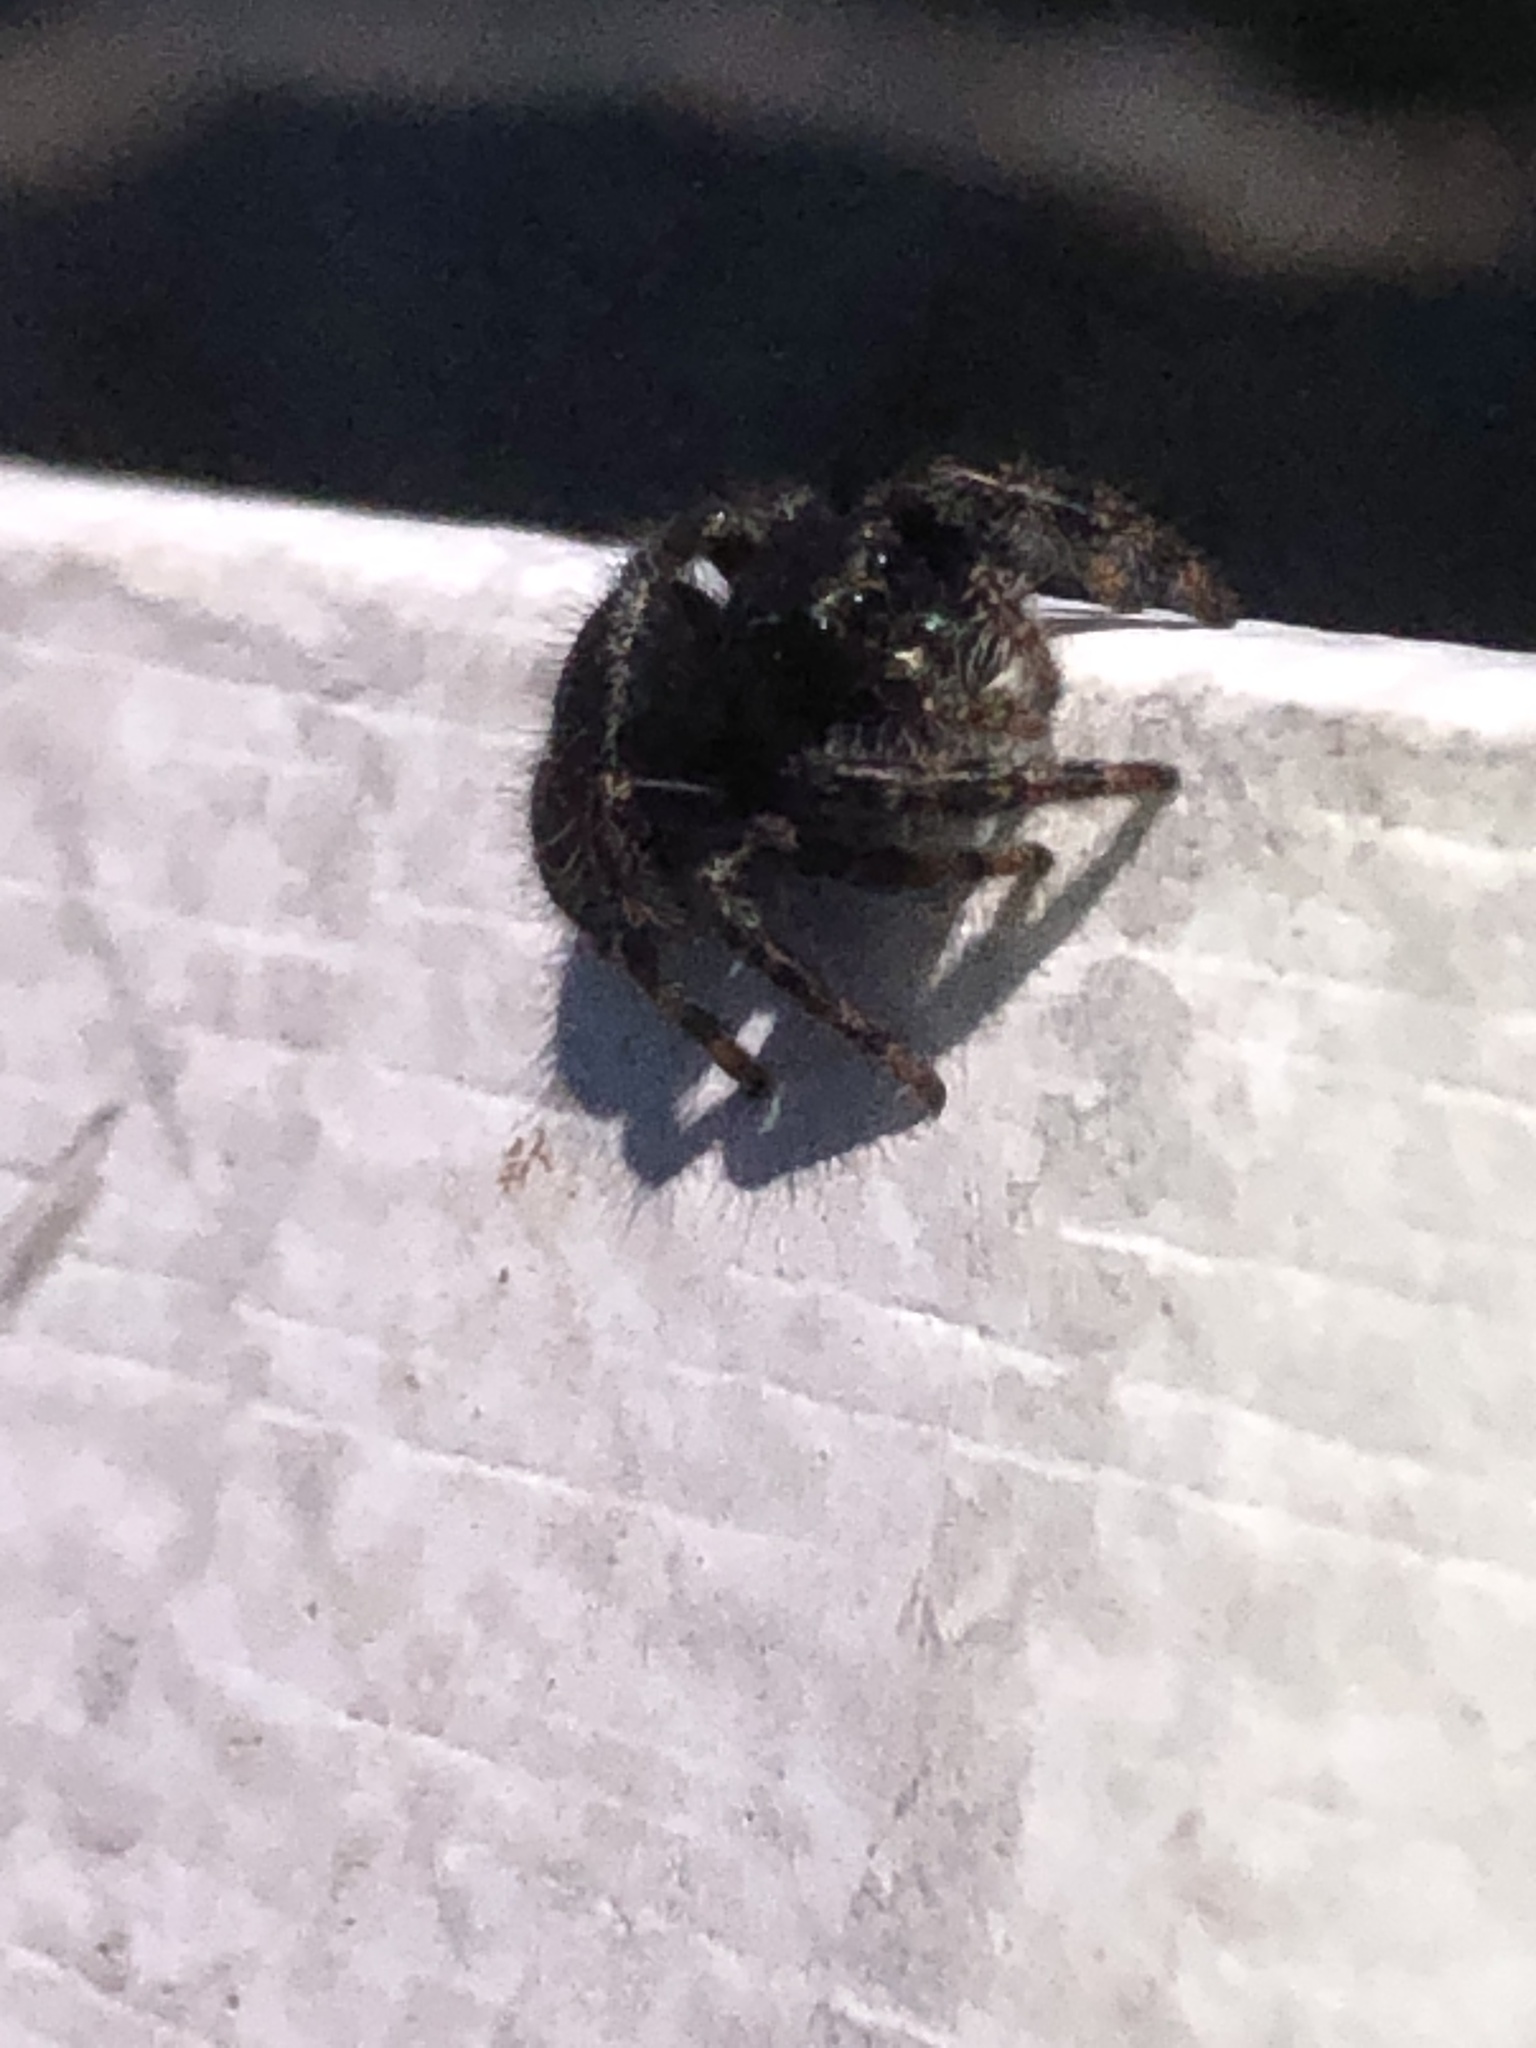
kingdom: Animalia
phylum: Arthropoda
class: Arachnida
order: Araneae
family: Salticidae
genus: Phidippus
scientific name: Phidippus audax
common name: Bold jumper
